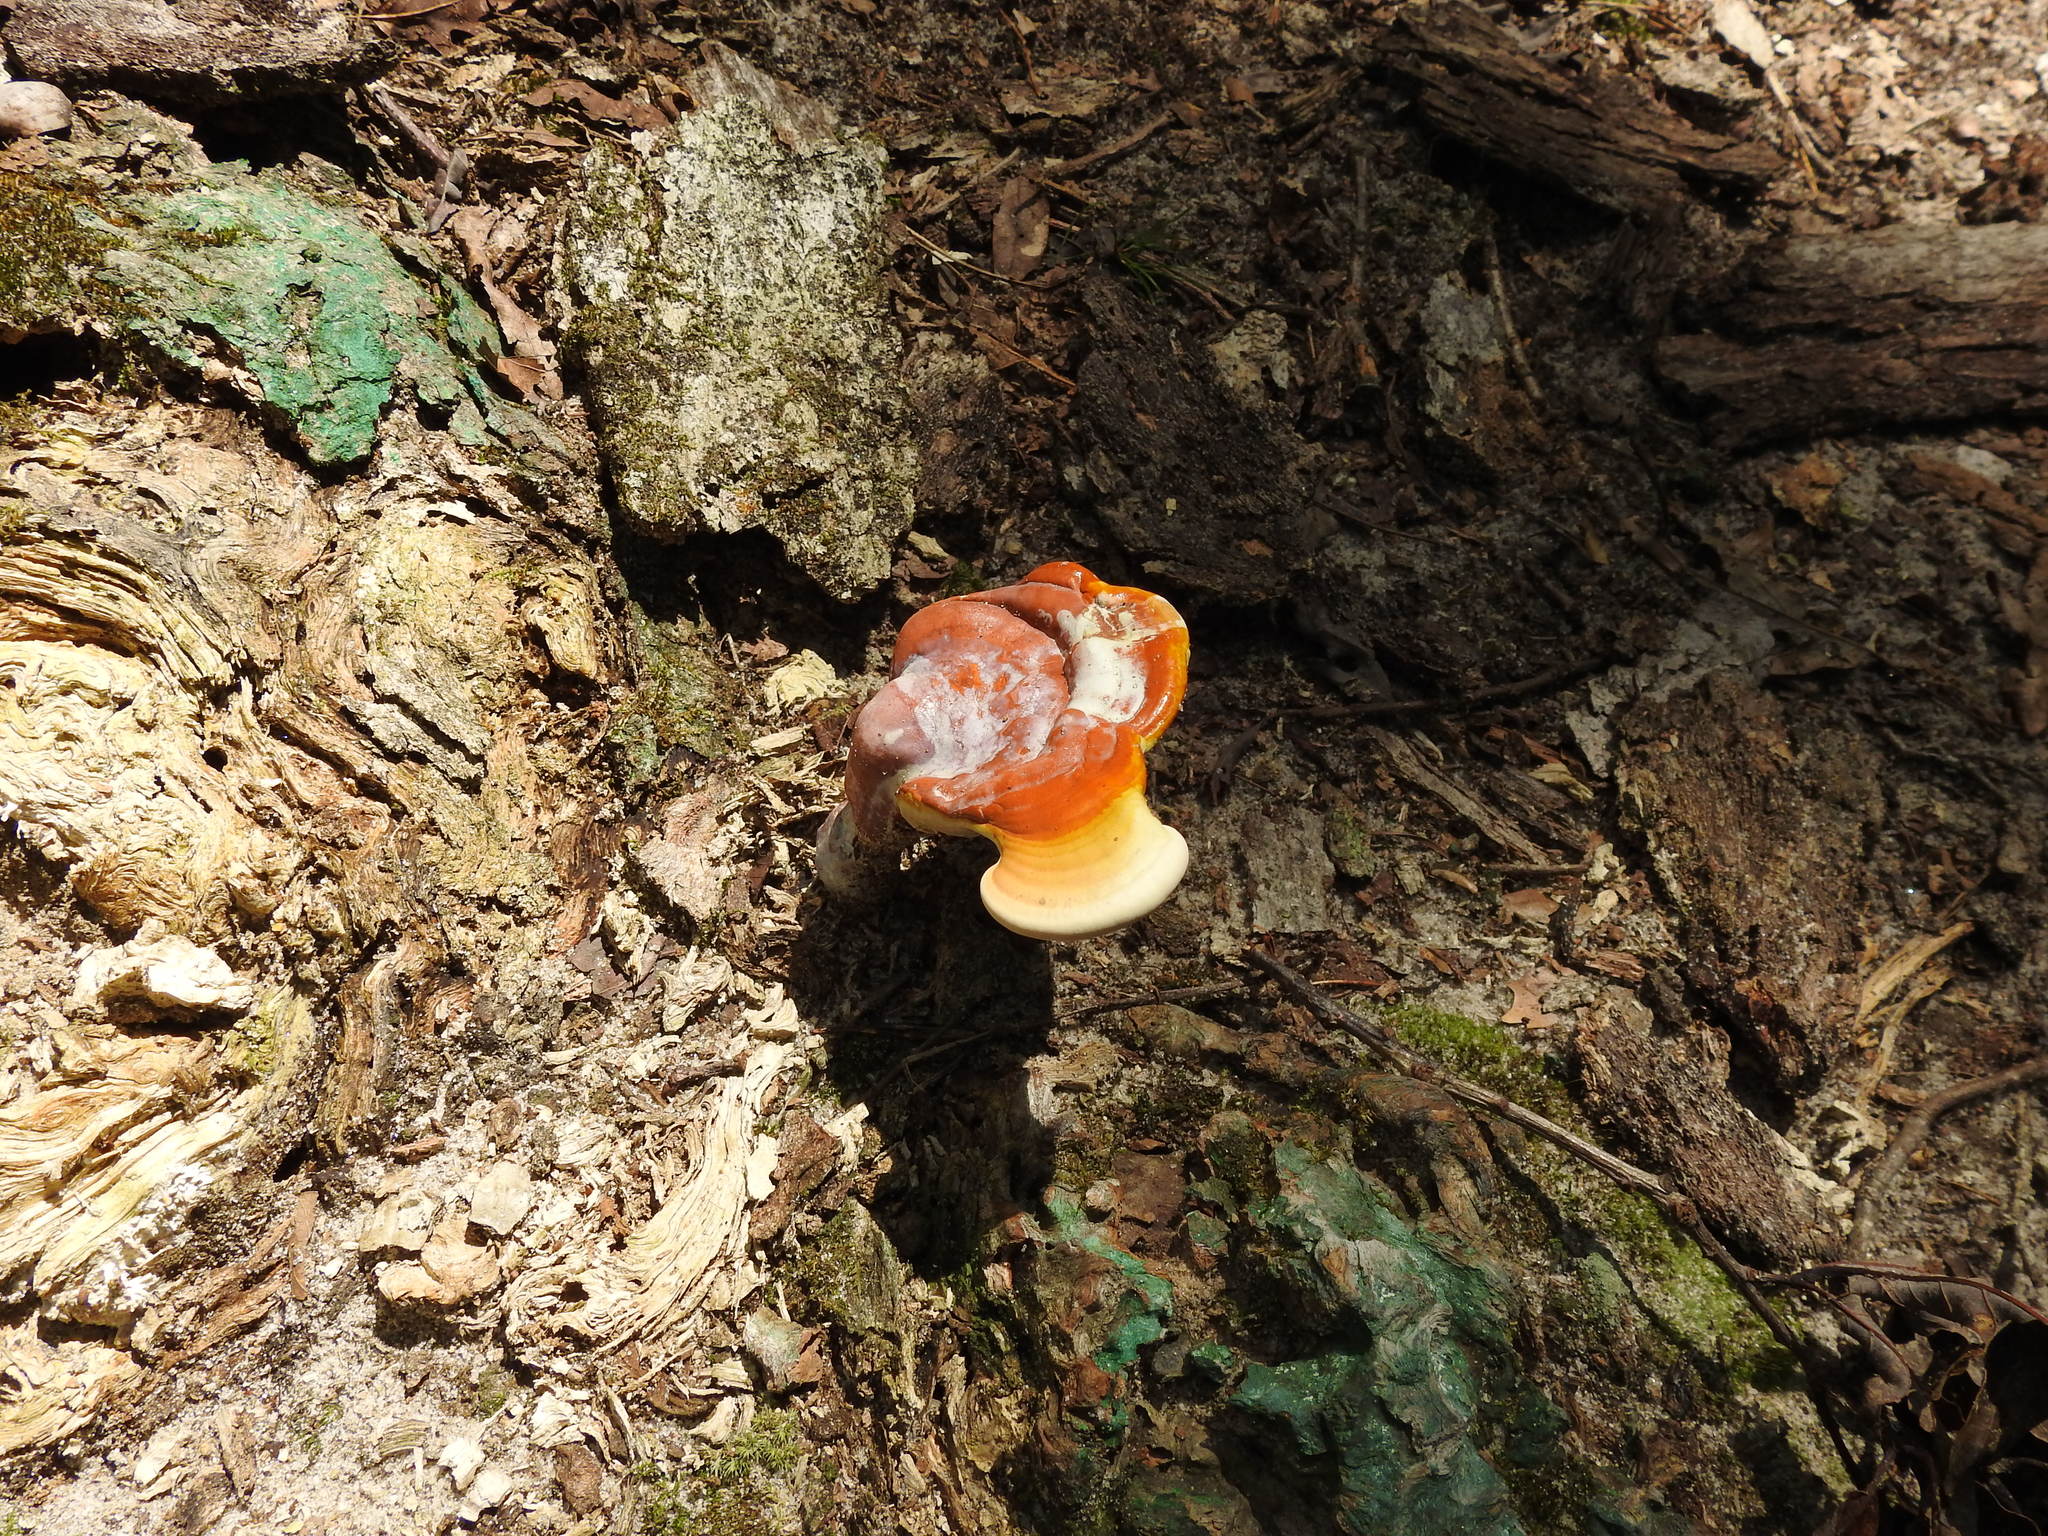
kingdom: Fungi
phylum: Basidiomycota
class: Agaricomycetes
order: Polyporales
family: Polyporaceae
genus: Ganoderma
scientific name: Ganoderma
